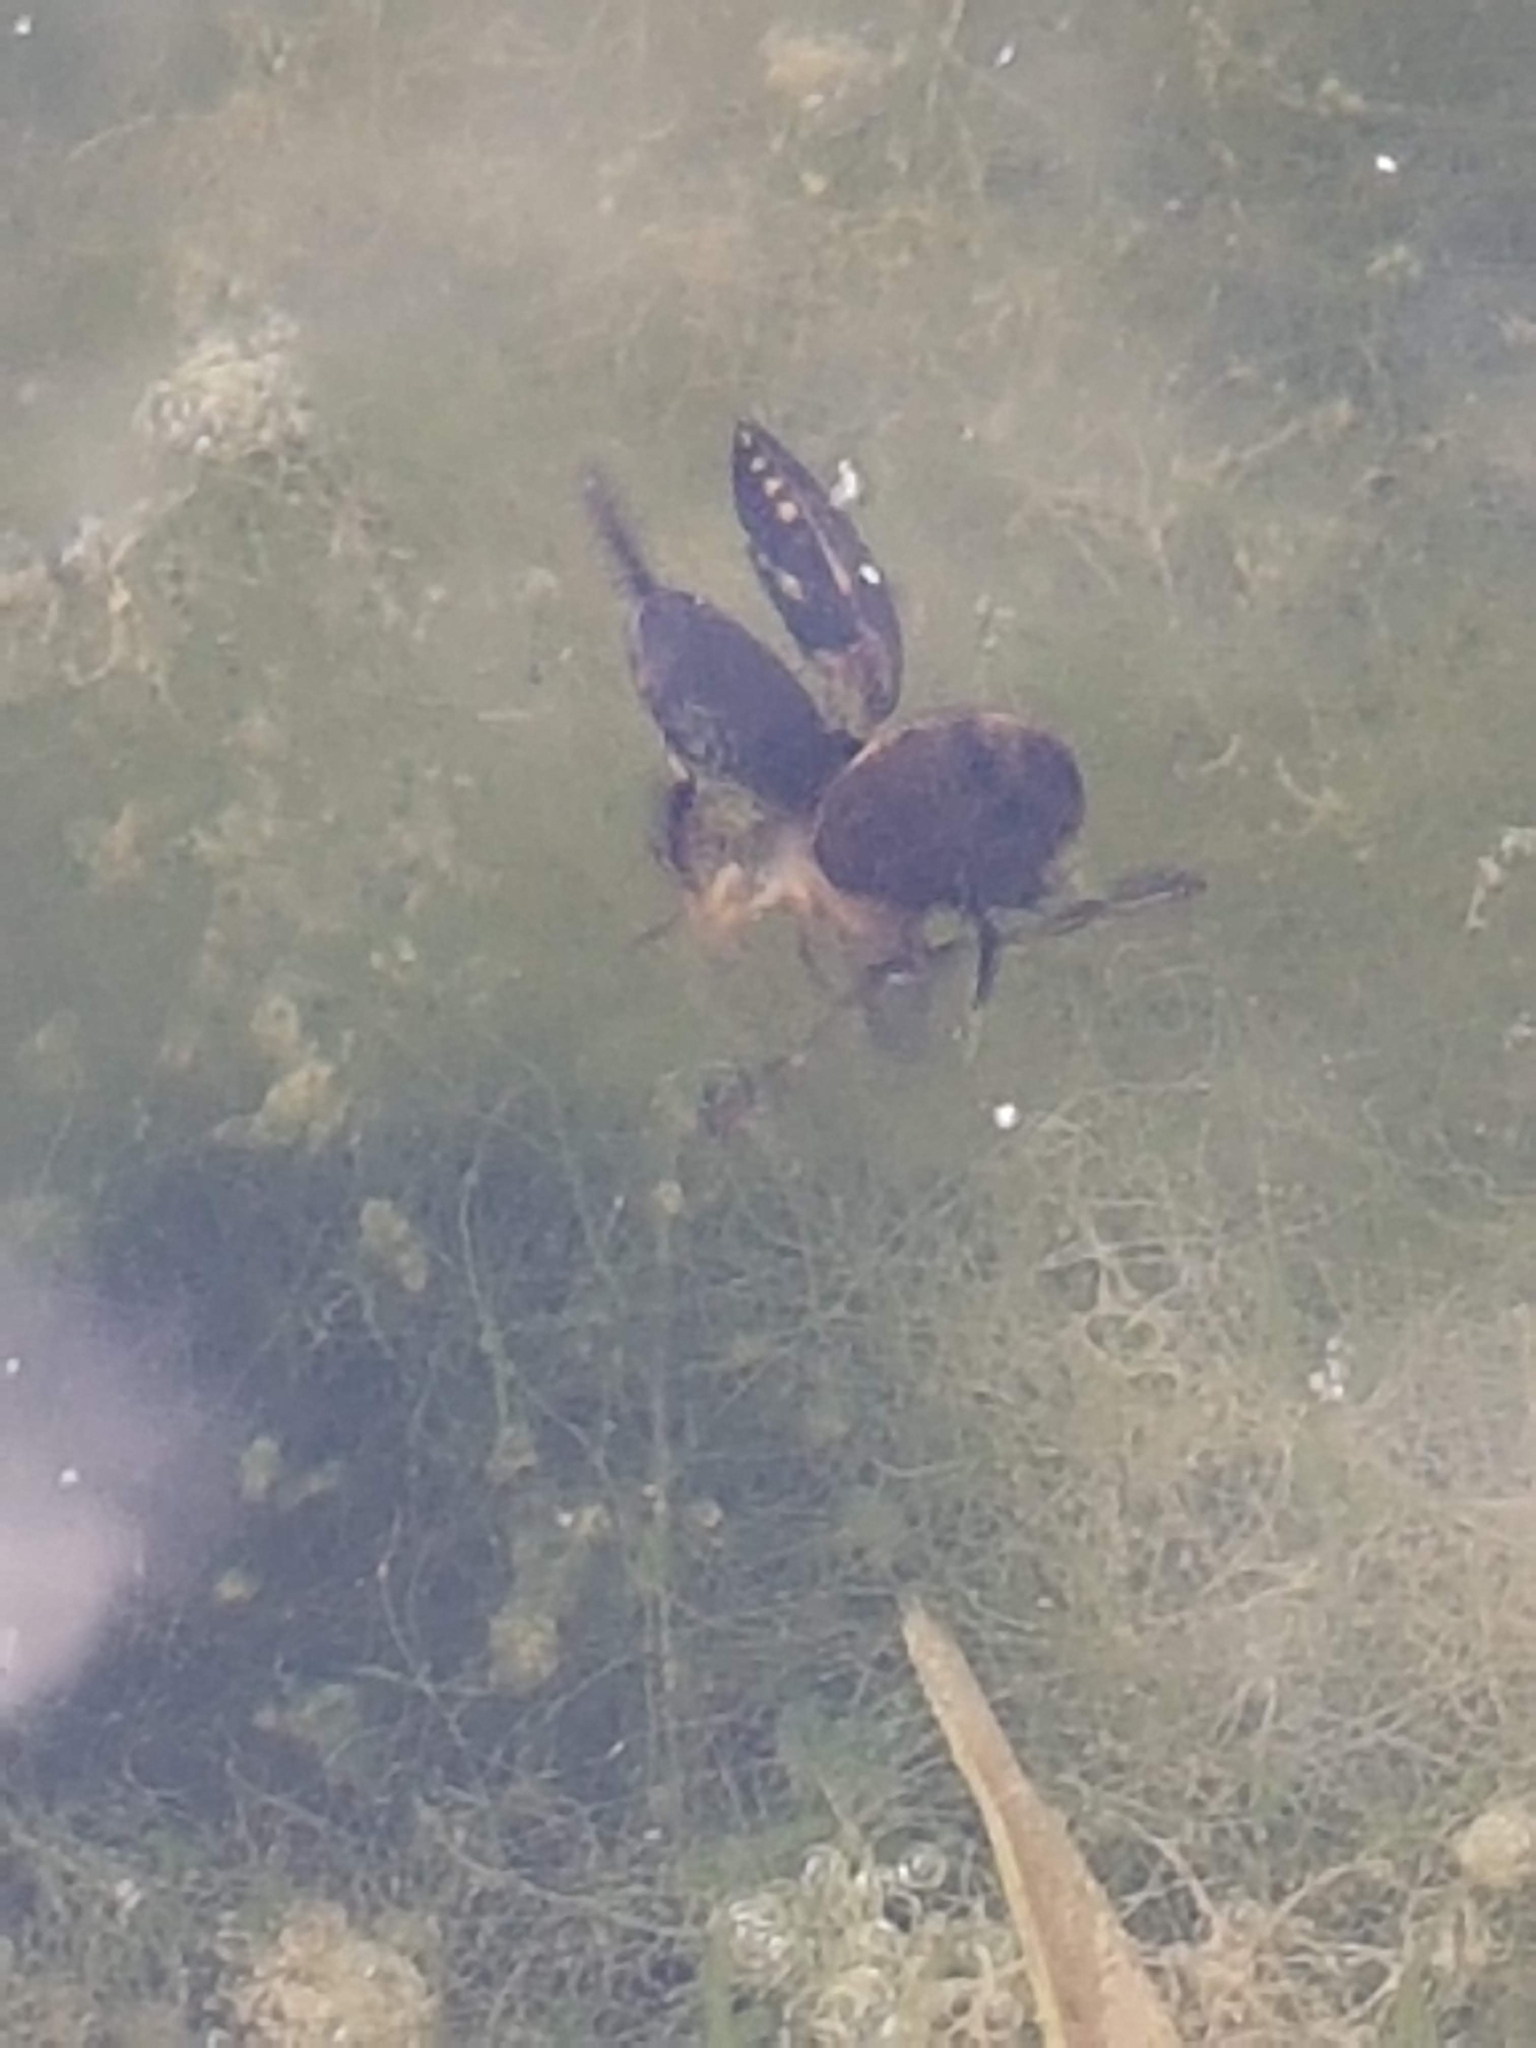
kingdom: Animalia
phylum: Arthropoda
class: Insecta
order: Coleoptera
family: Dytiscidae
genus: Acilius
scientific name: Acilius sulcatus
